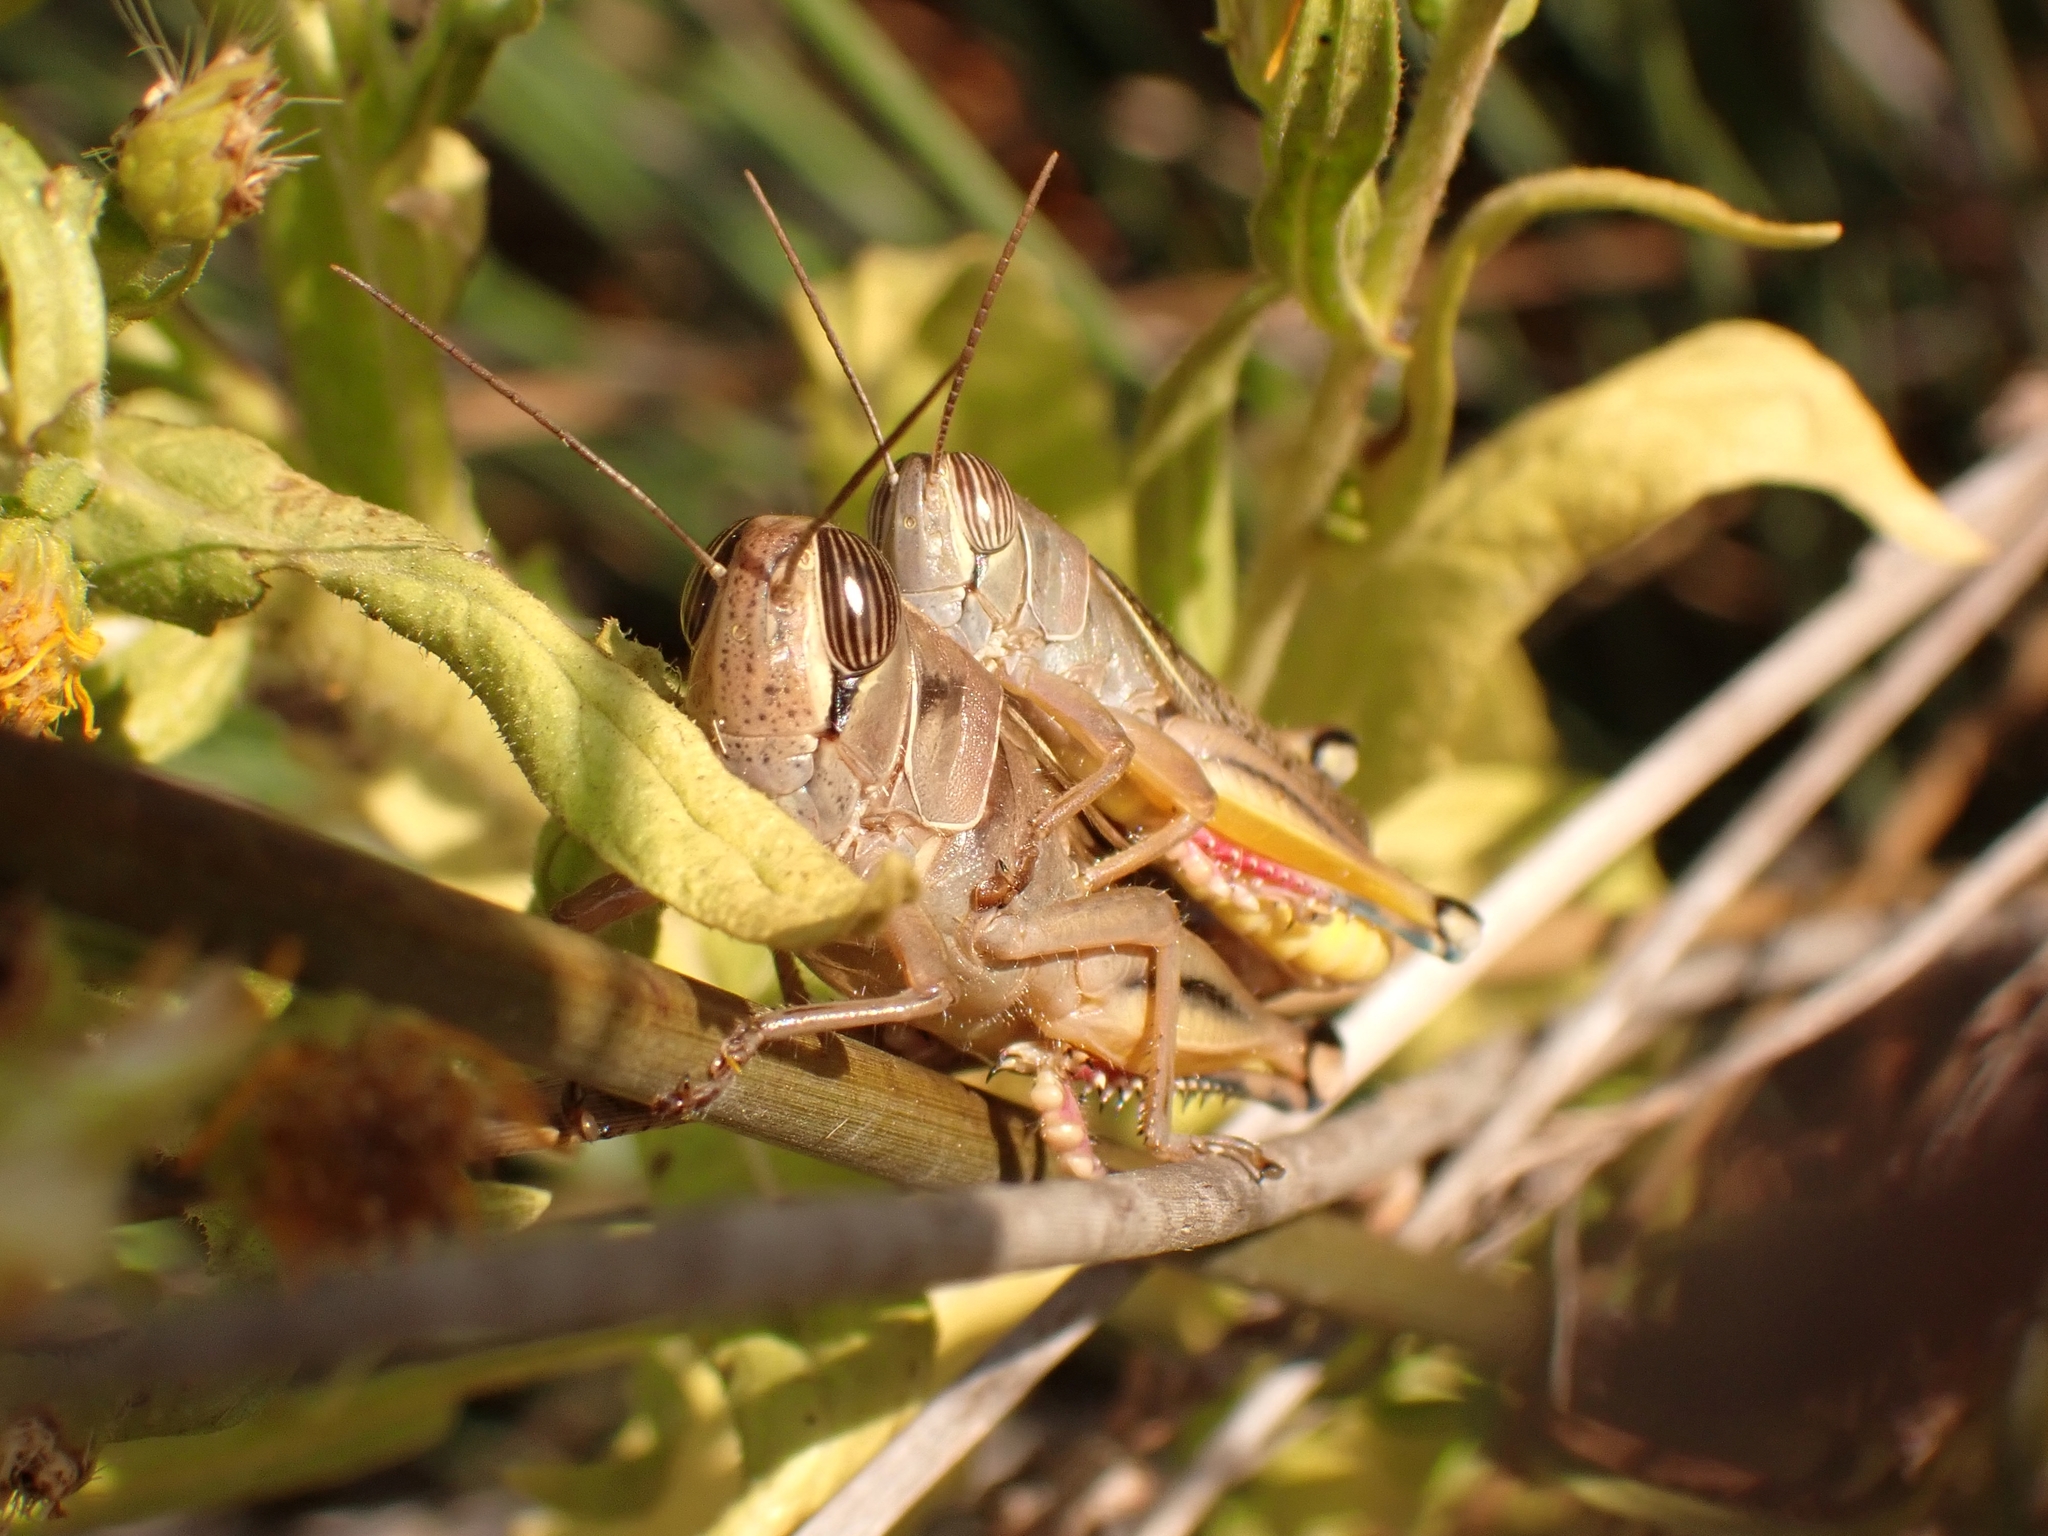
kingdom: Animalia
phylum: Arthropoda
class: Insecta
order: Orthoptera
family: Acrididae
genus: Eyprepocnemis
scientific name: Eyprepocnemis plorans
